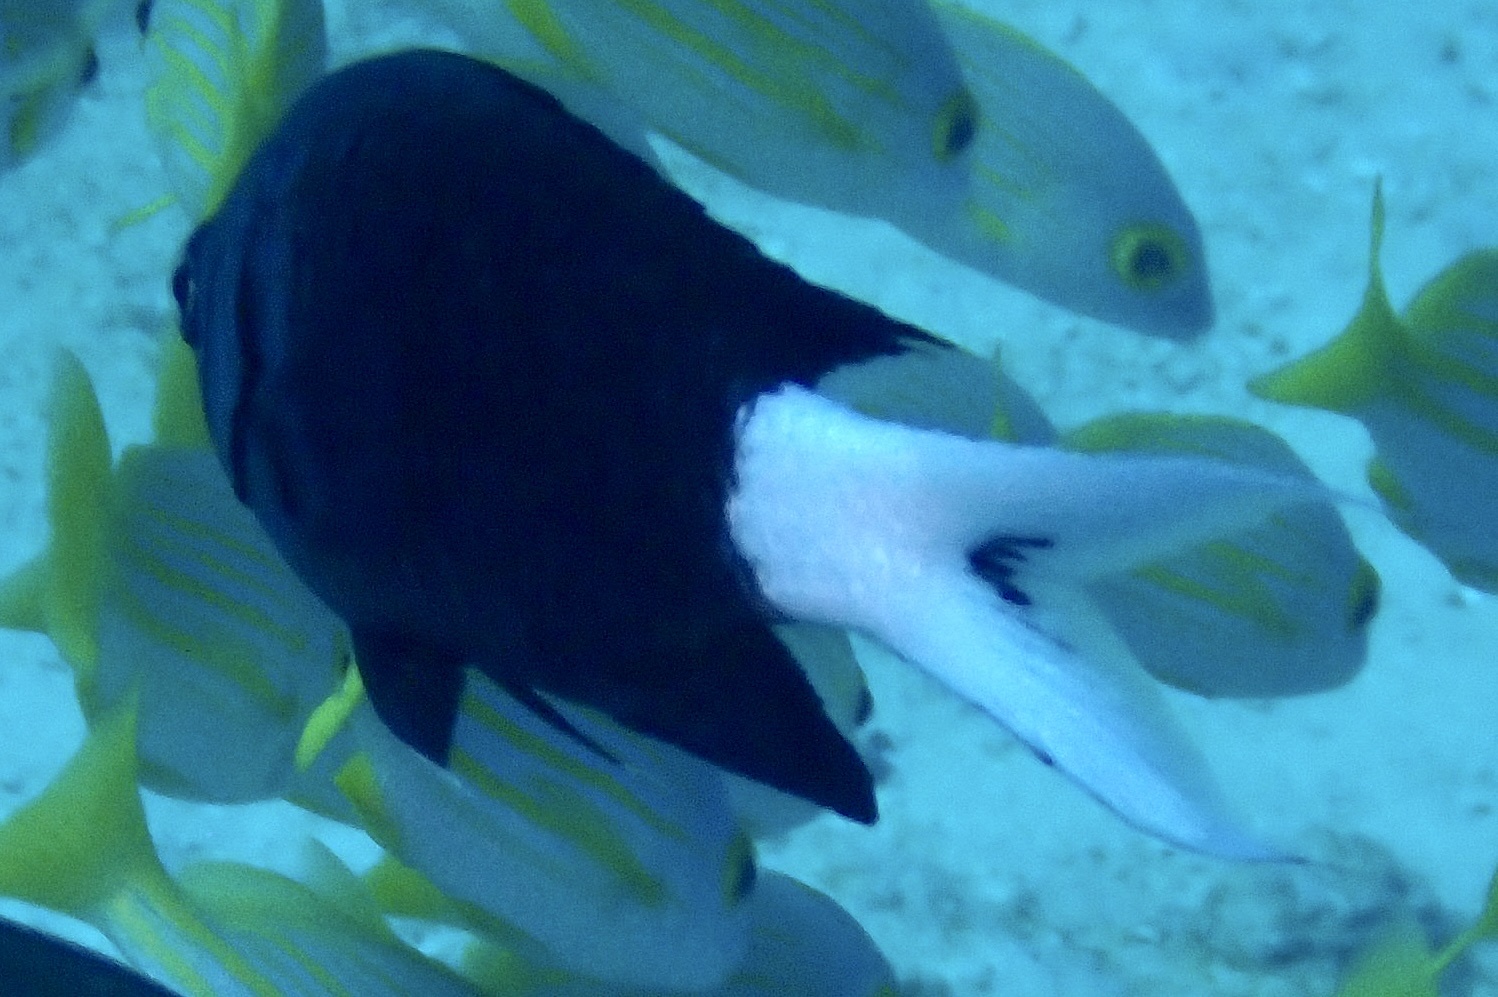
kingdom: Animalia
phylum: Chordata
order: Perciformes
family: Pomacentridae
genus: Chromis
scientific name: Chromis xanthura
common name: Black chromis
